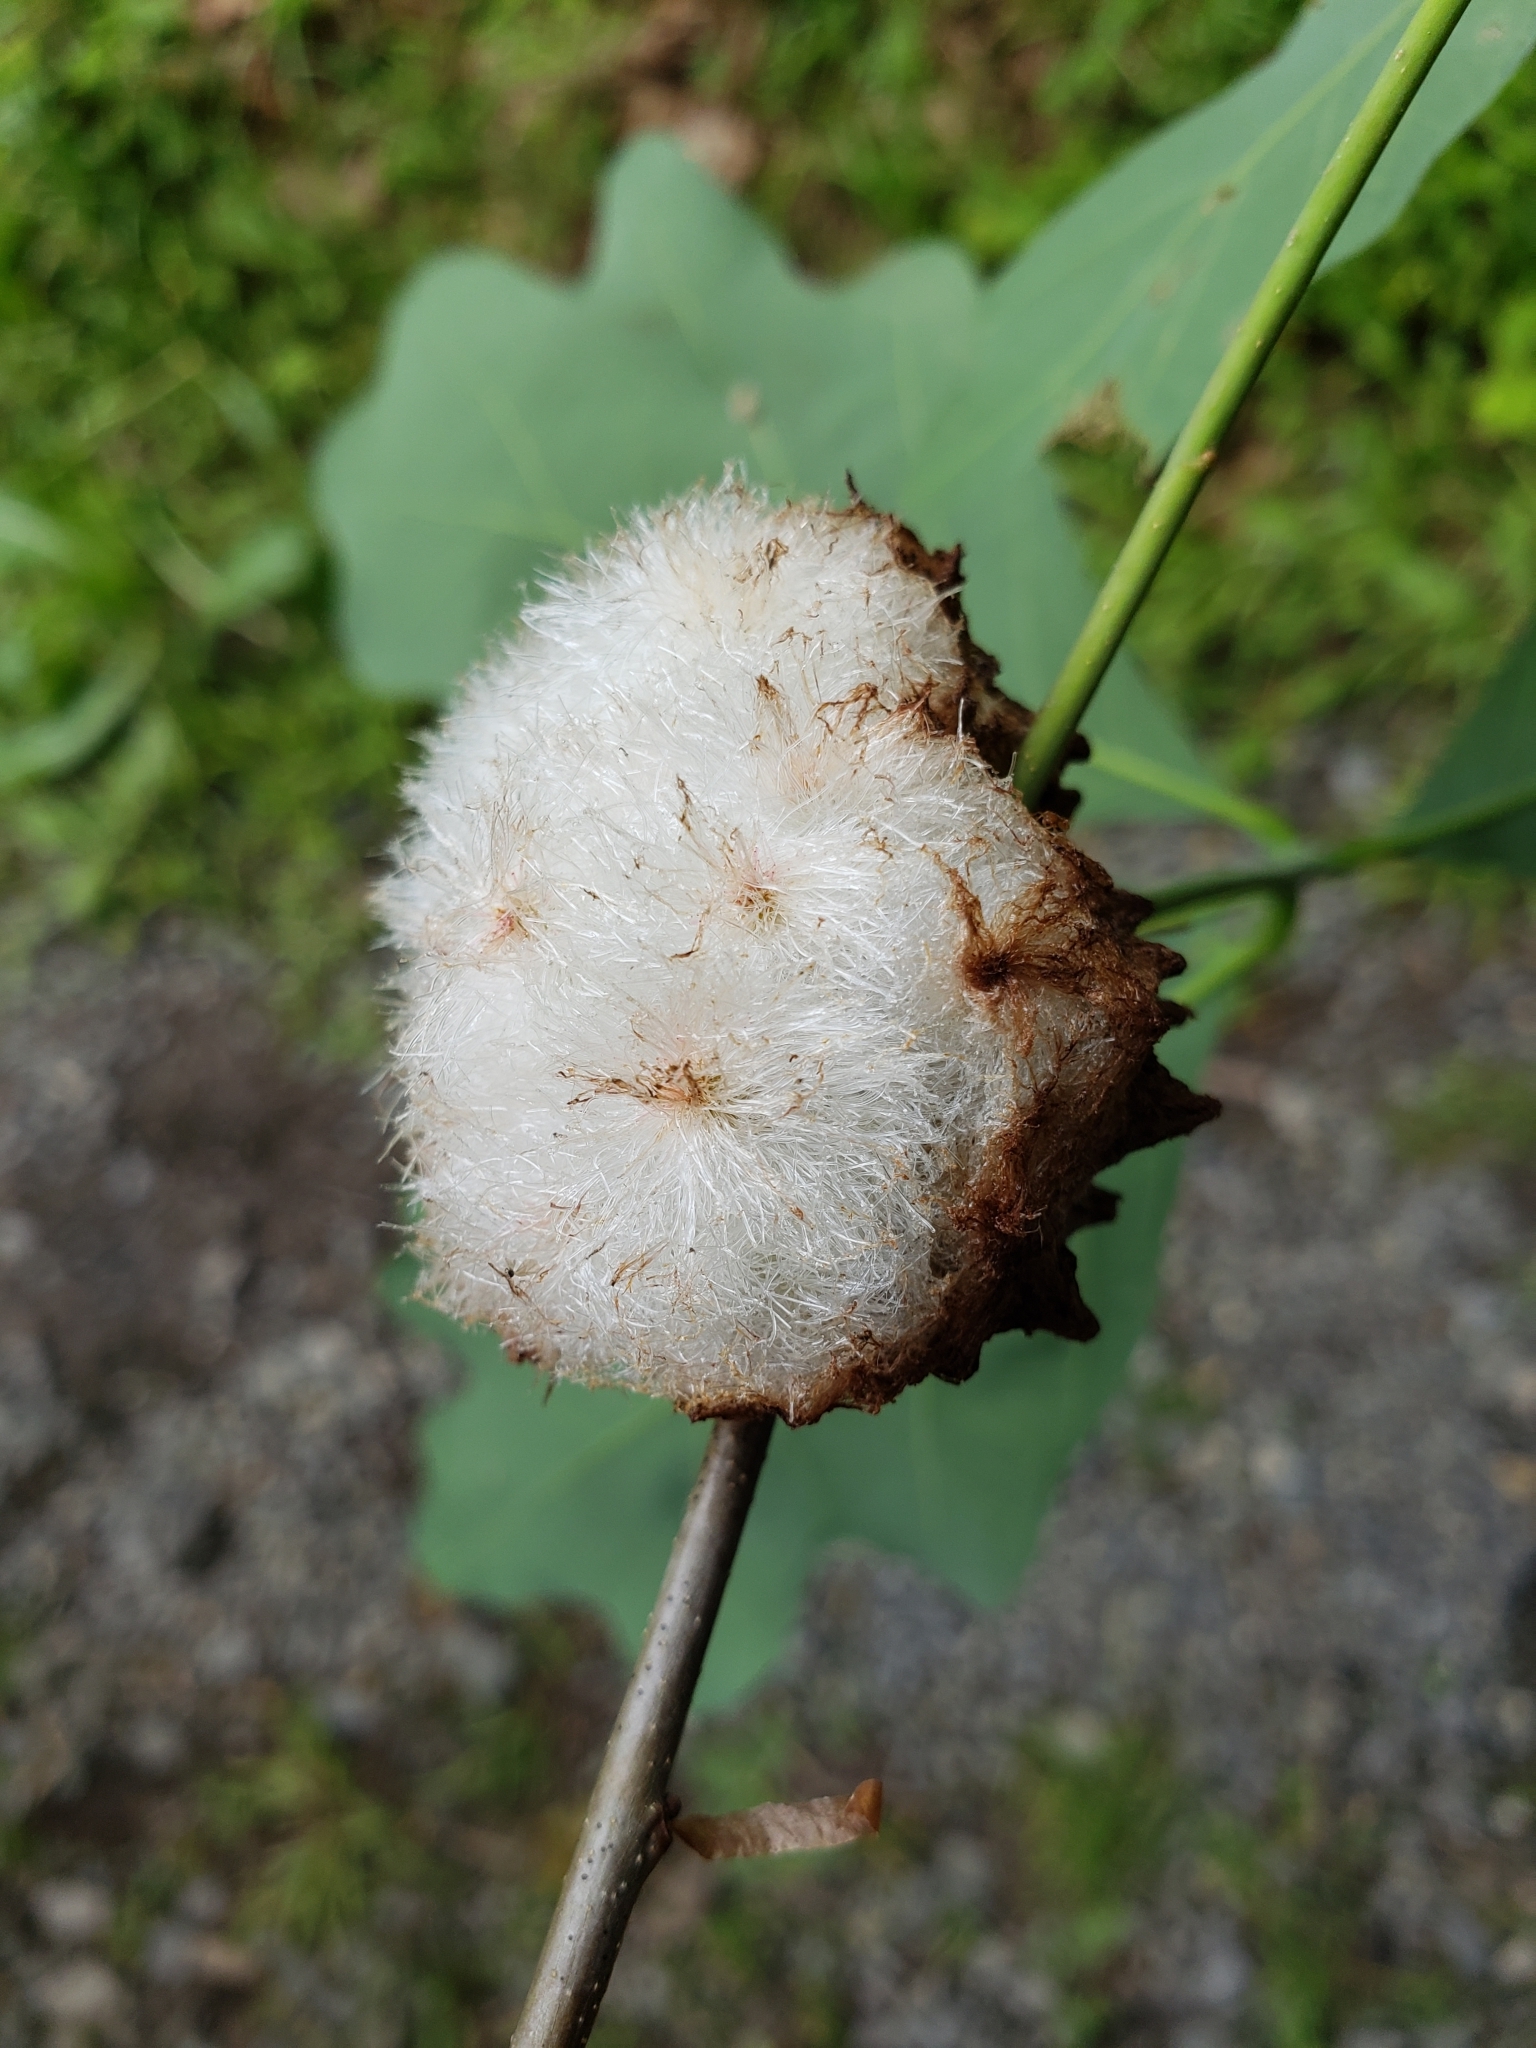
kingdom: Animalia
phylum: Arthropoda
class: Insecta
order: Hymenoptera
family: Cynipidae
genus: Callirhytis
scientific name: Callirhytis
